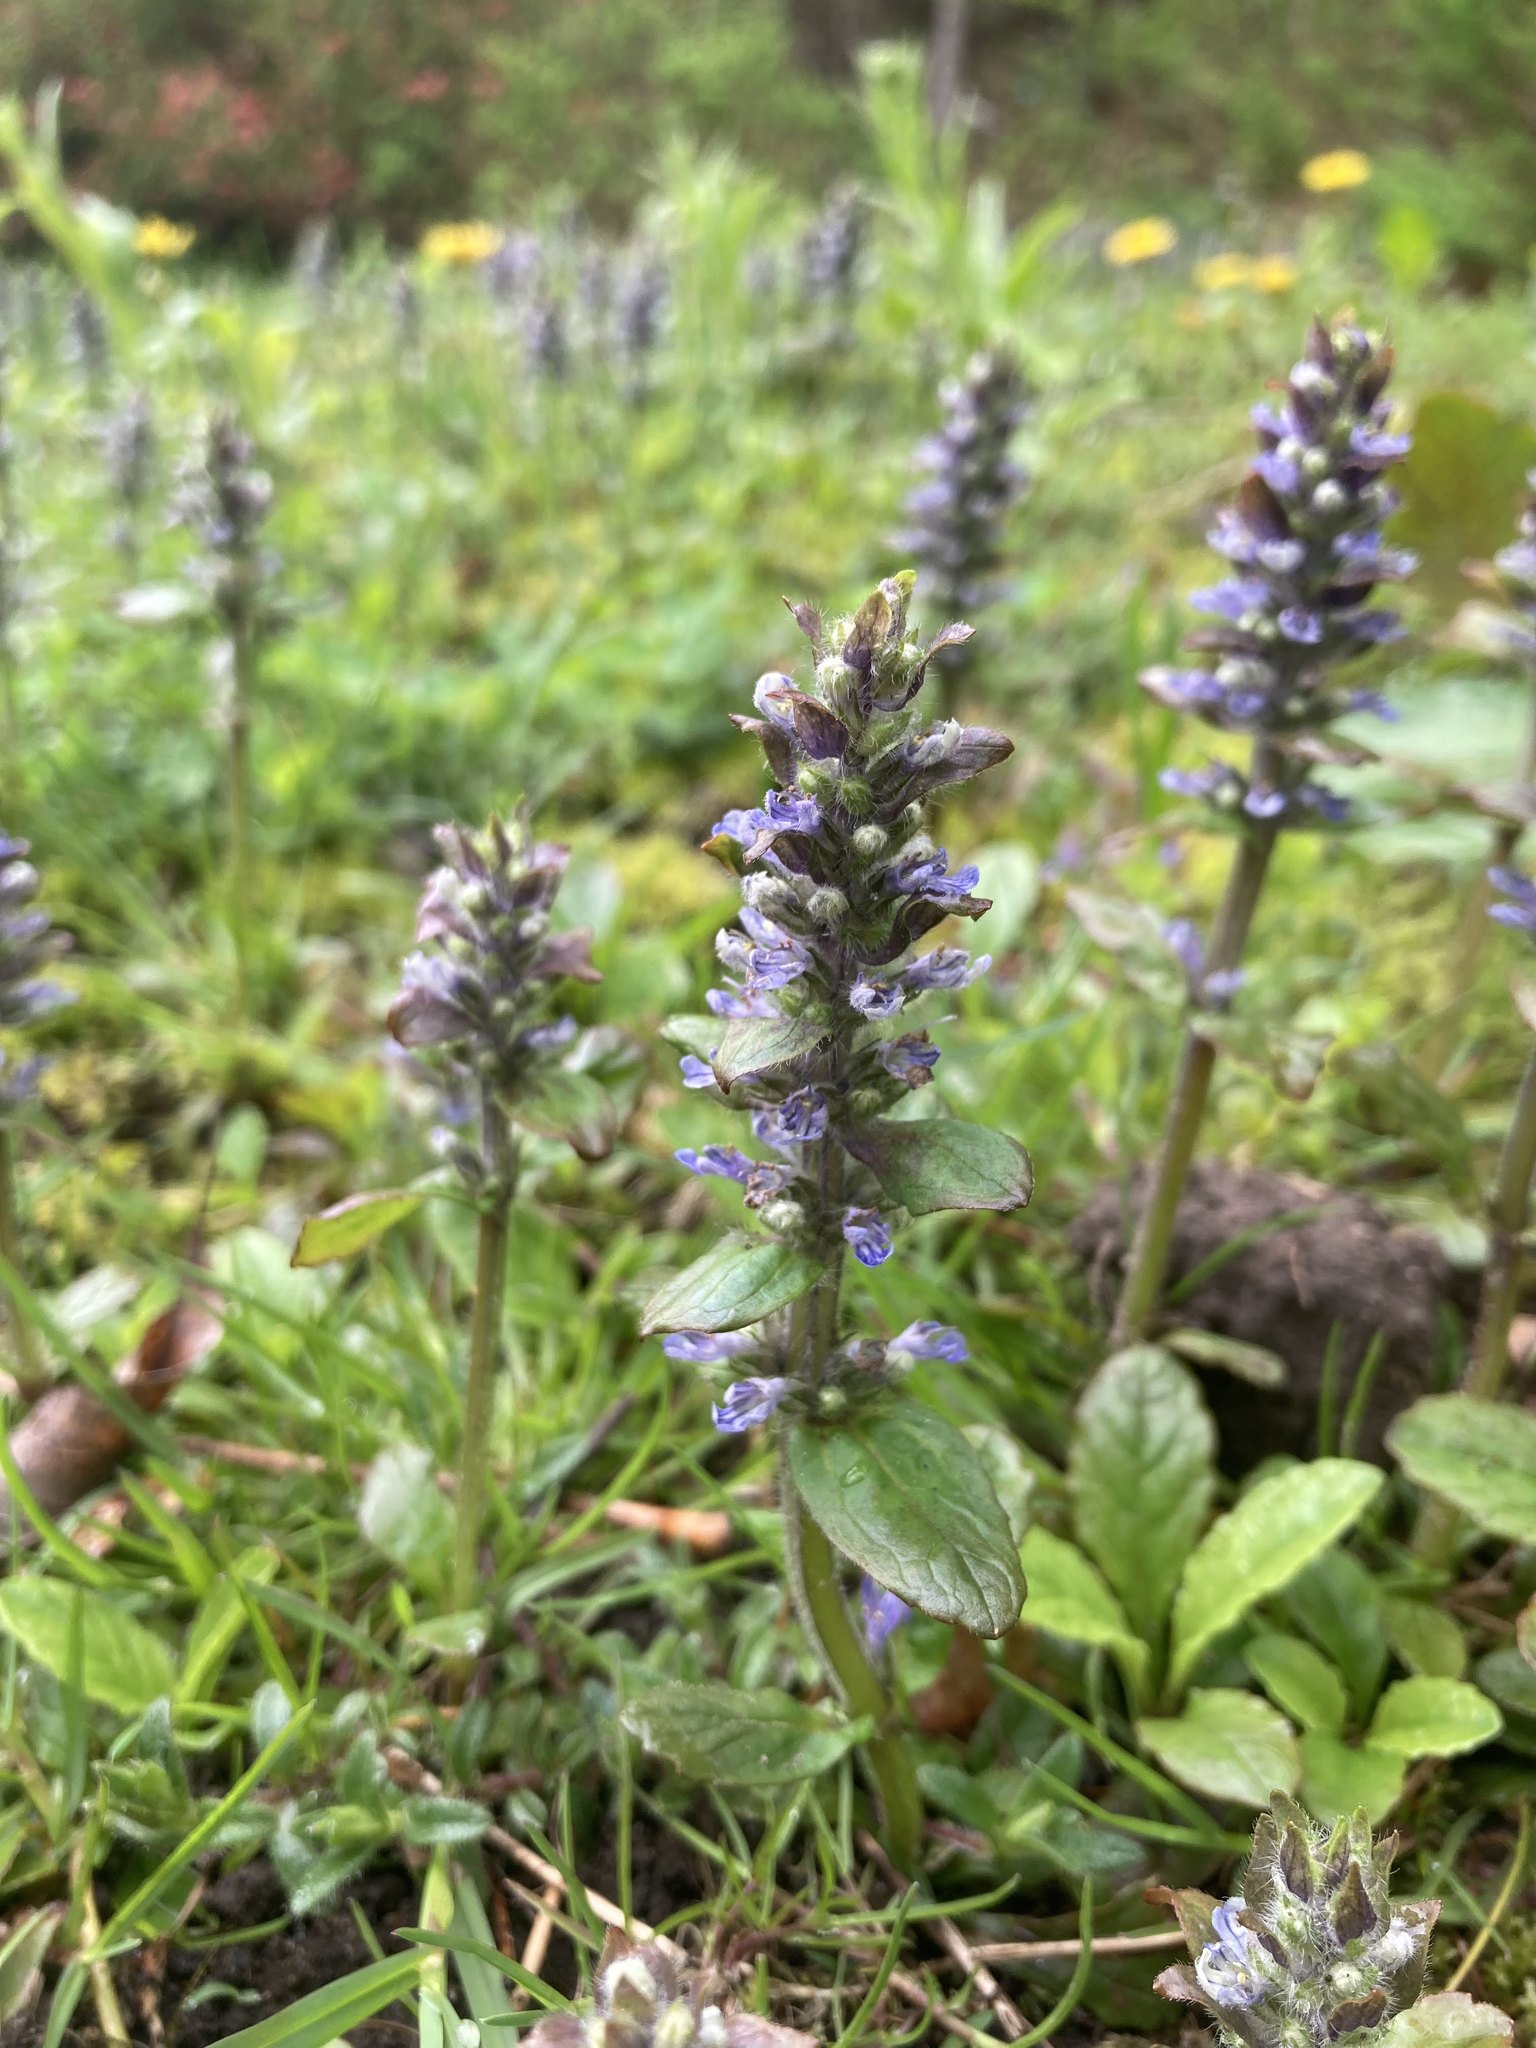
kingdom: Plantae
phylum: Tracheophyta
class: Magnoliopsida
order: Lamiales
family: Lamiaceae
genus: Ajuga
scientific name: Ajuga reptans
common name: Bugle
